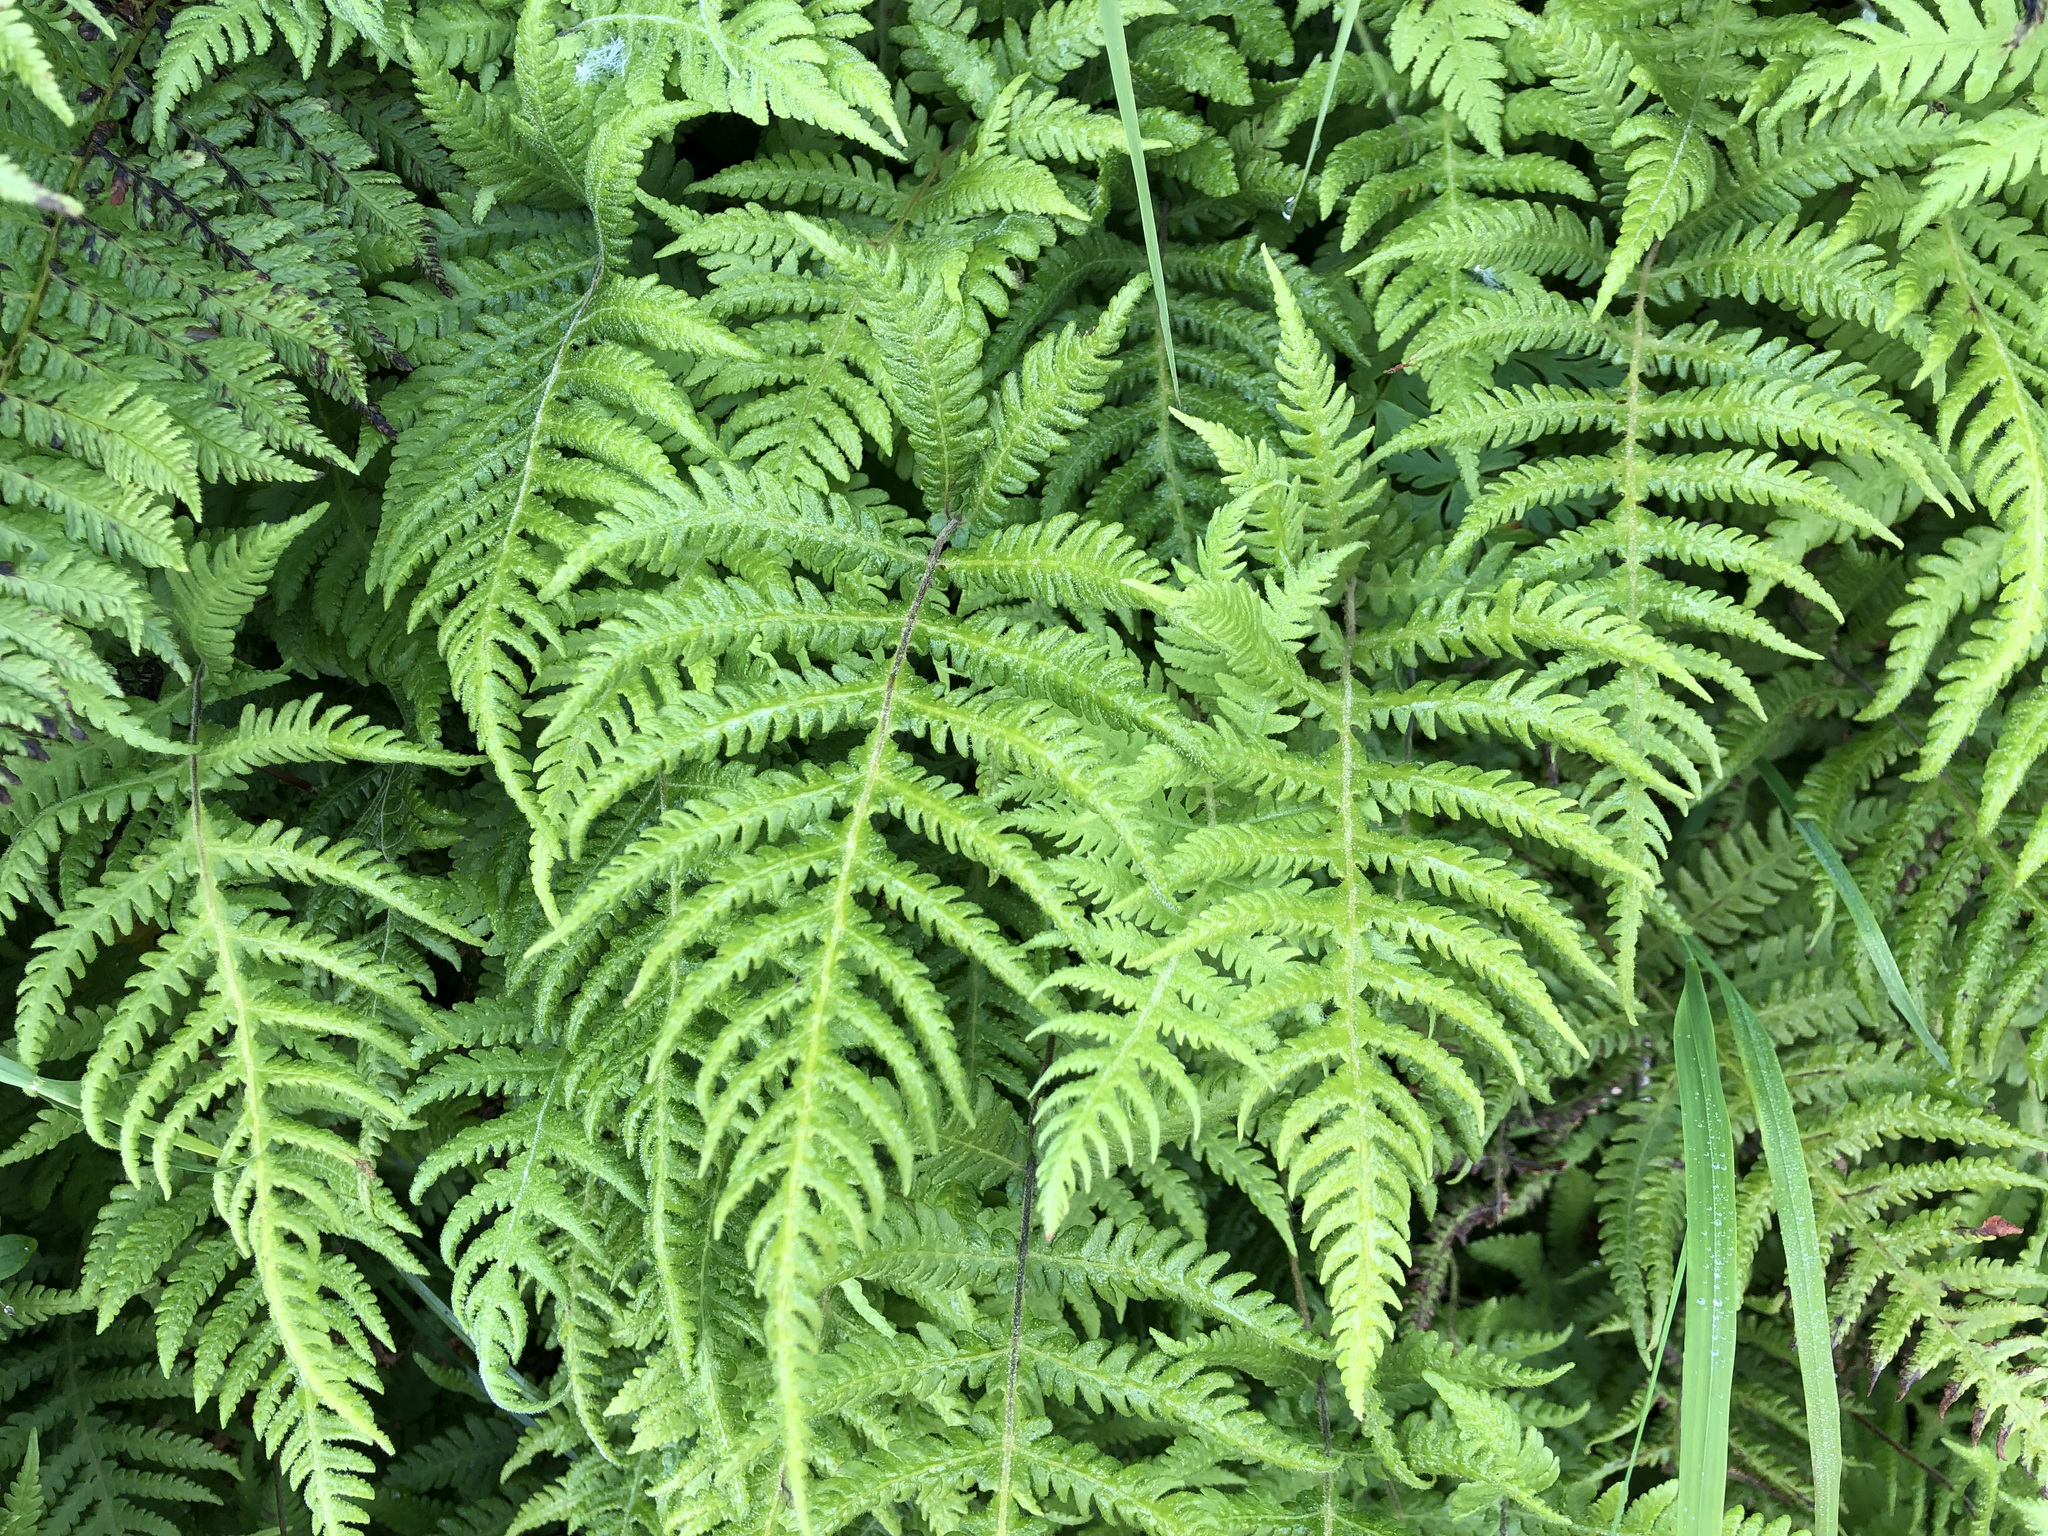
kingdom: Plantae
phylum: Tracheophyta
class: Polypodiopsida
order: Polypodiales
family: Thelypteridaceae
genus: Phegopteris
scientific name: Phegopteris connectilis
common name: Beech fern
